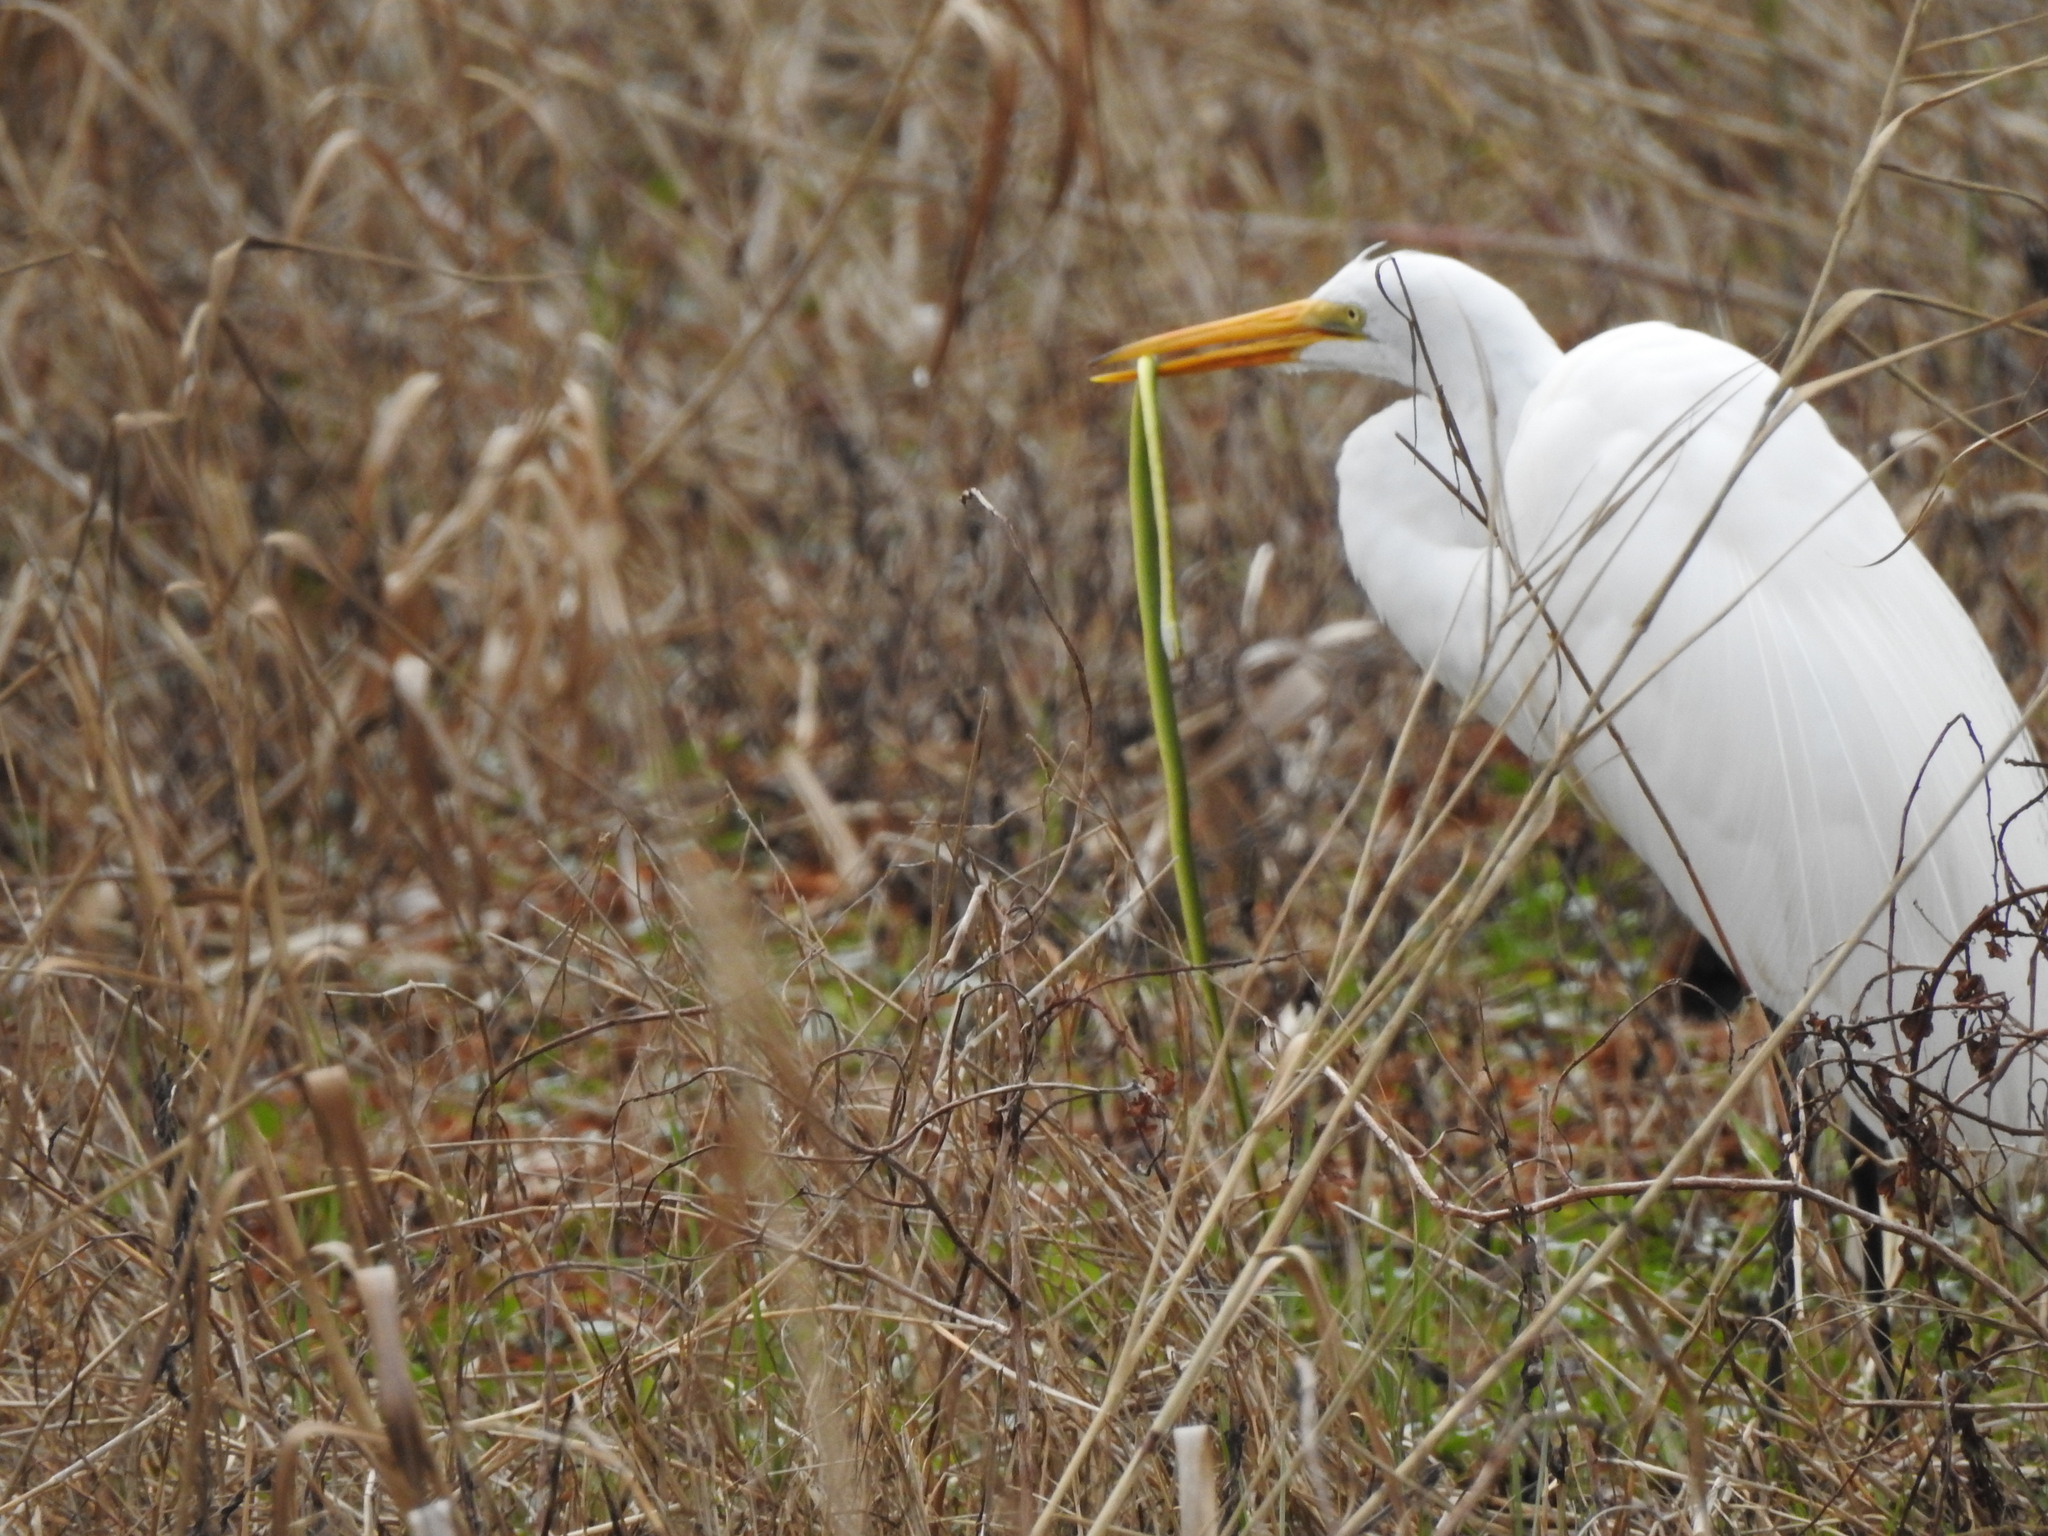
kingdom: Animalia
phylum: Chordata
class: Aves
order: Pelecaniformes
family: Ardeidae
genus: Ardea
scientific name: Ardea alba
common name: Great egret
